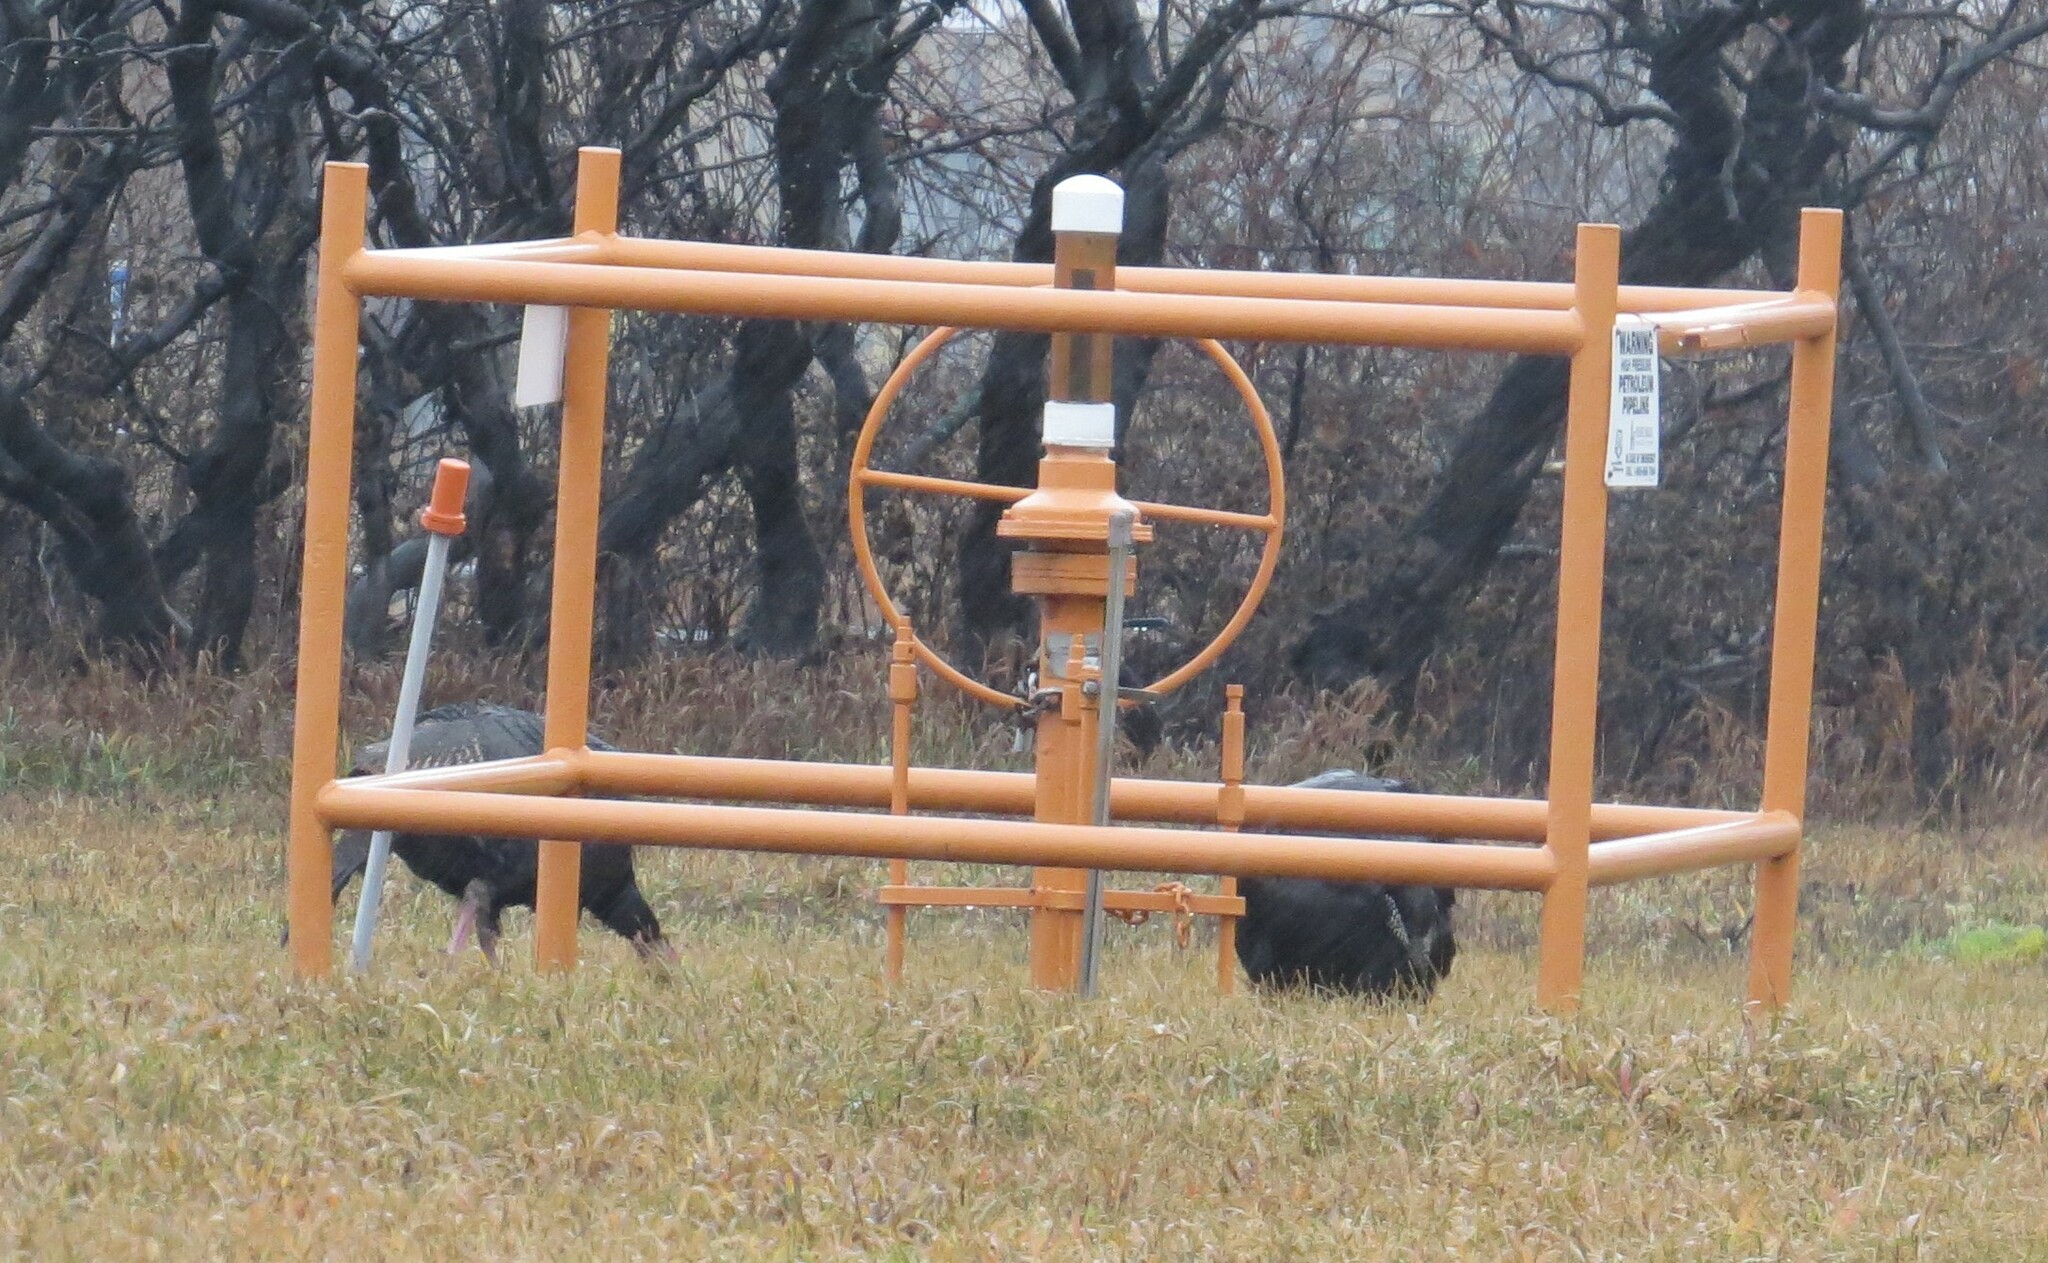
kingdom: Animalia
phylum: Chordata
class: Aves
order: Galliformes
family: Phasianidae
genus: Meleagris
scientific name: Meleagris gallopavo
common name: Wild turkey
